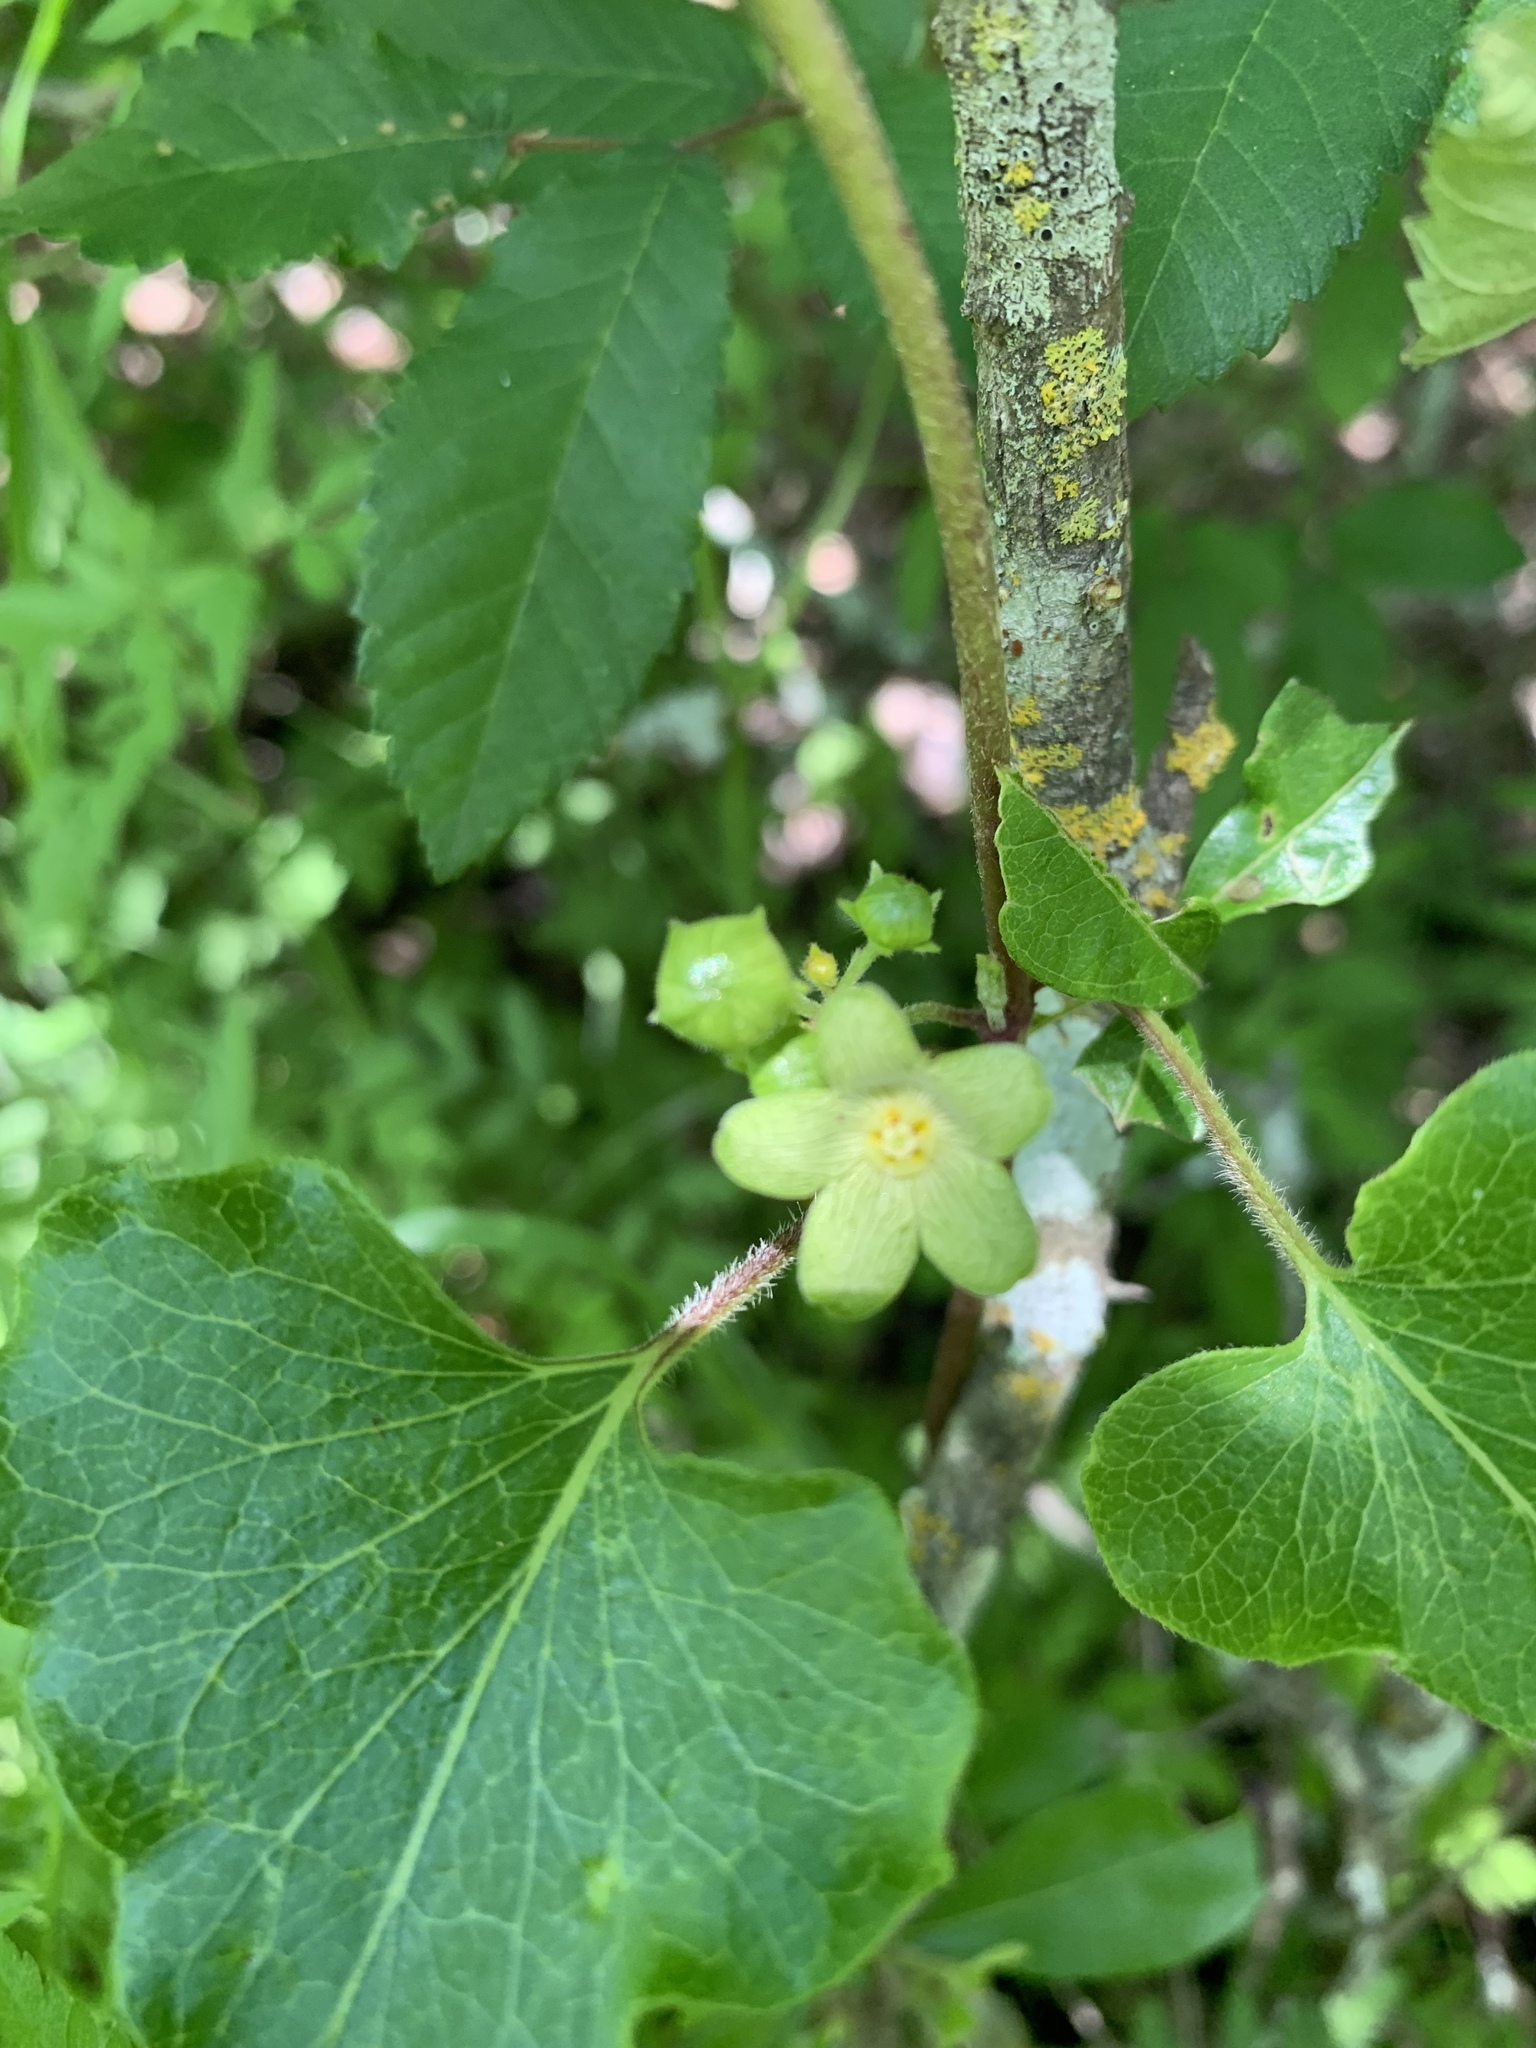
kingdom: Plantae
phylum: Tracheophyta
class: Magnoliopsida
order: Gentianales
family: Apocynaceae
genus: Matelea
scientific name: Matelea edwardsensis
